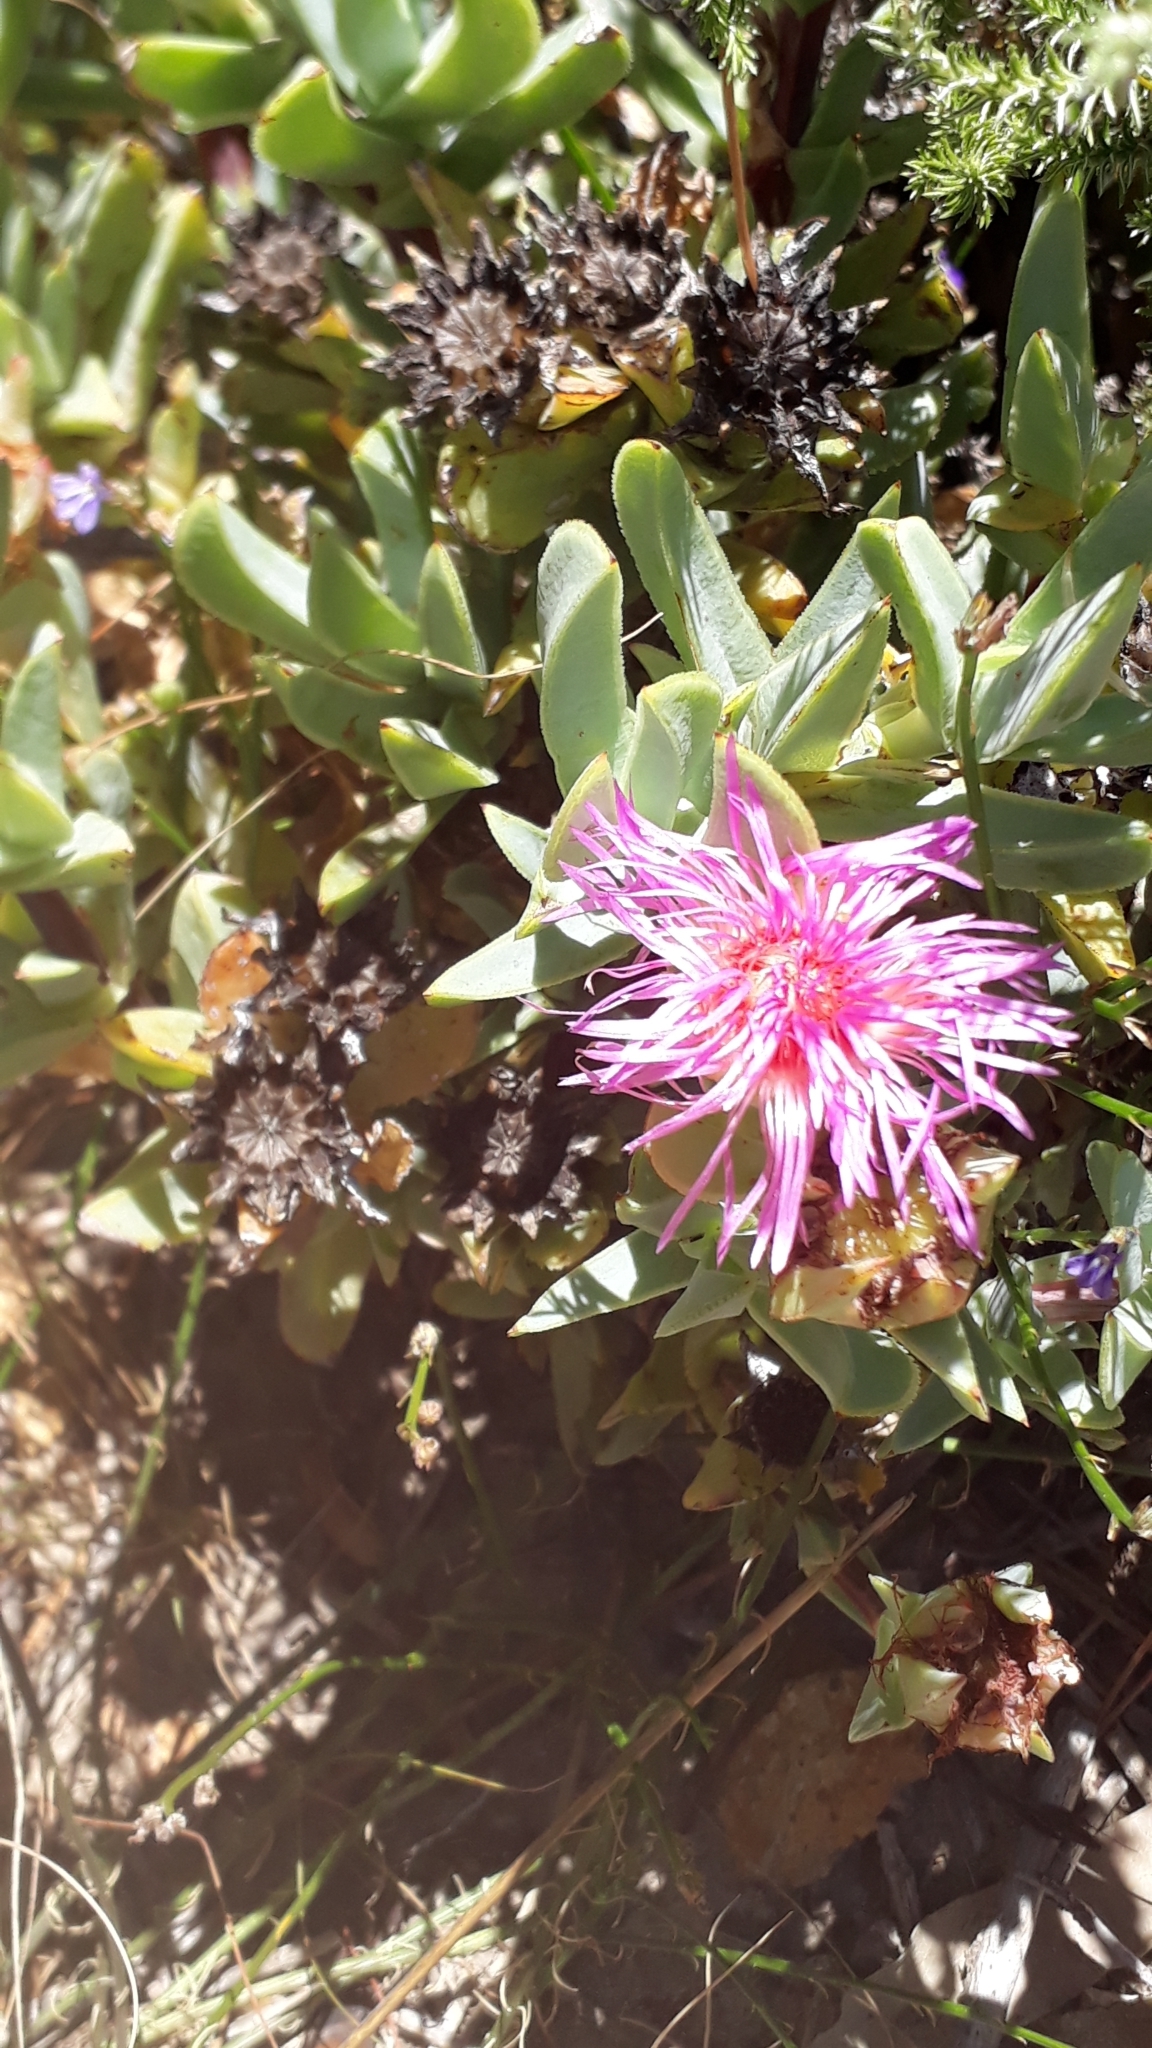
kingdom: Plantae
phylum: Tracheophyta
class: Magnoliopsida
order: Caryophyllales
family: Aizoaceae
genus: Erepsia
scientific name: Erepsia lacera
